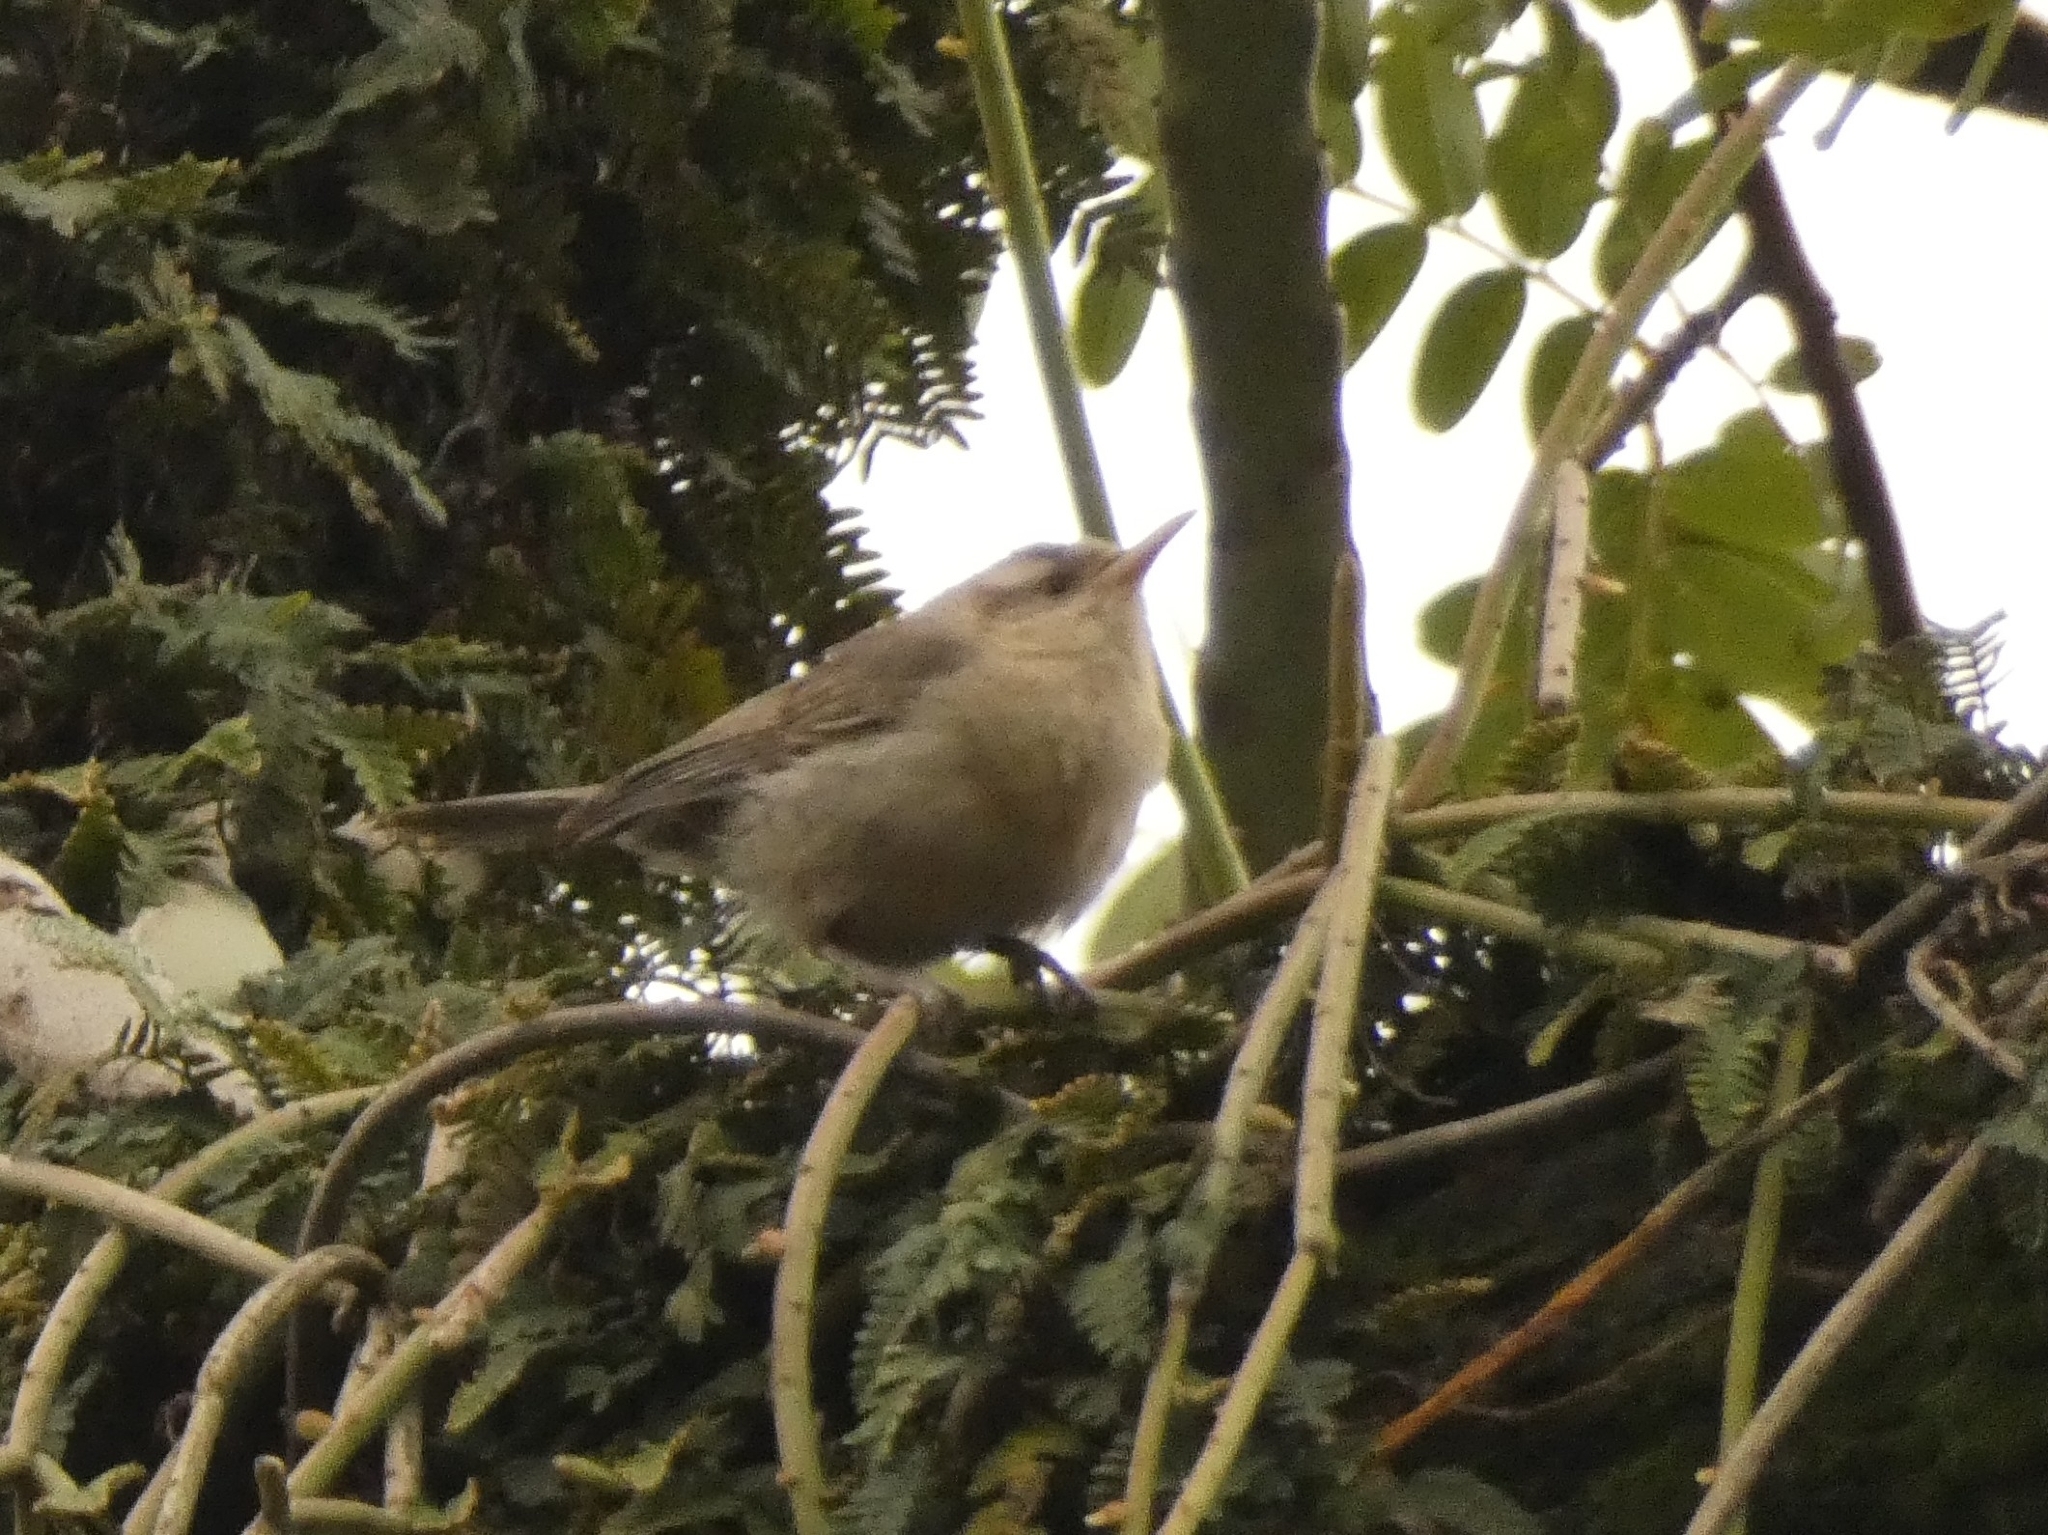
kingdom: Animalia
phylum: Chordata
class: Aves
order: Passeriformes
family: Troglodytidae
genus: Campylorhynchus
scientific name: Campylorhynchus turdinus
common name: Thrush-like wren
